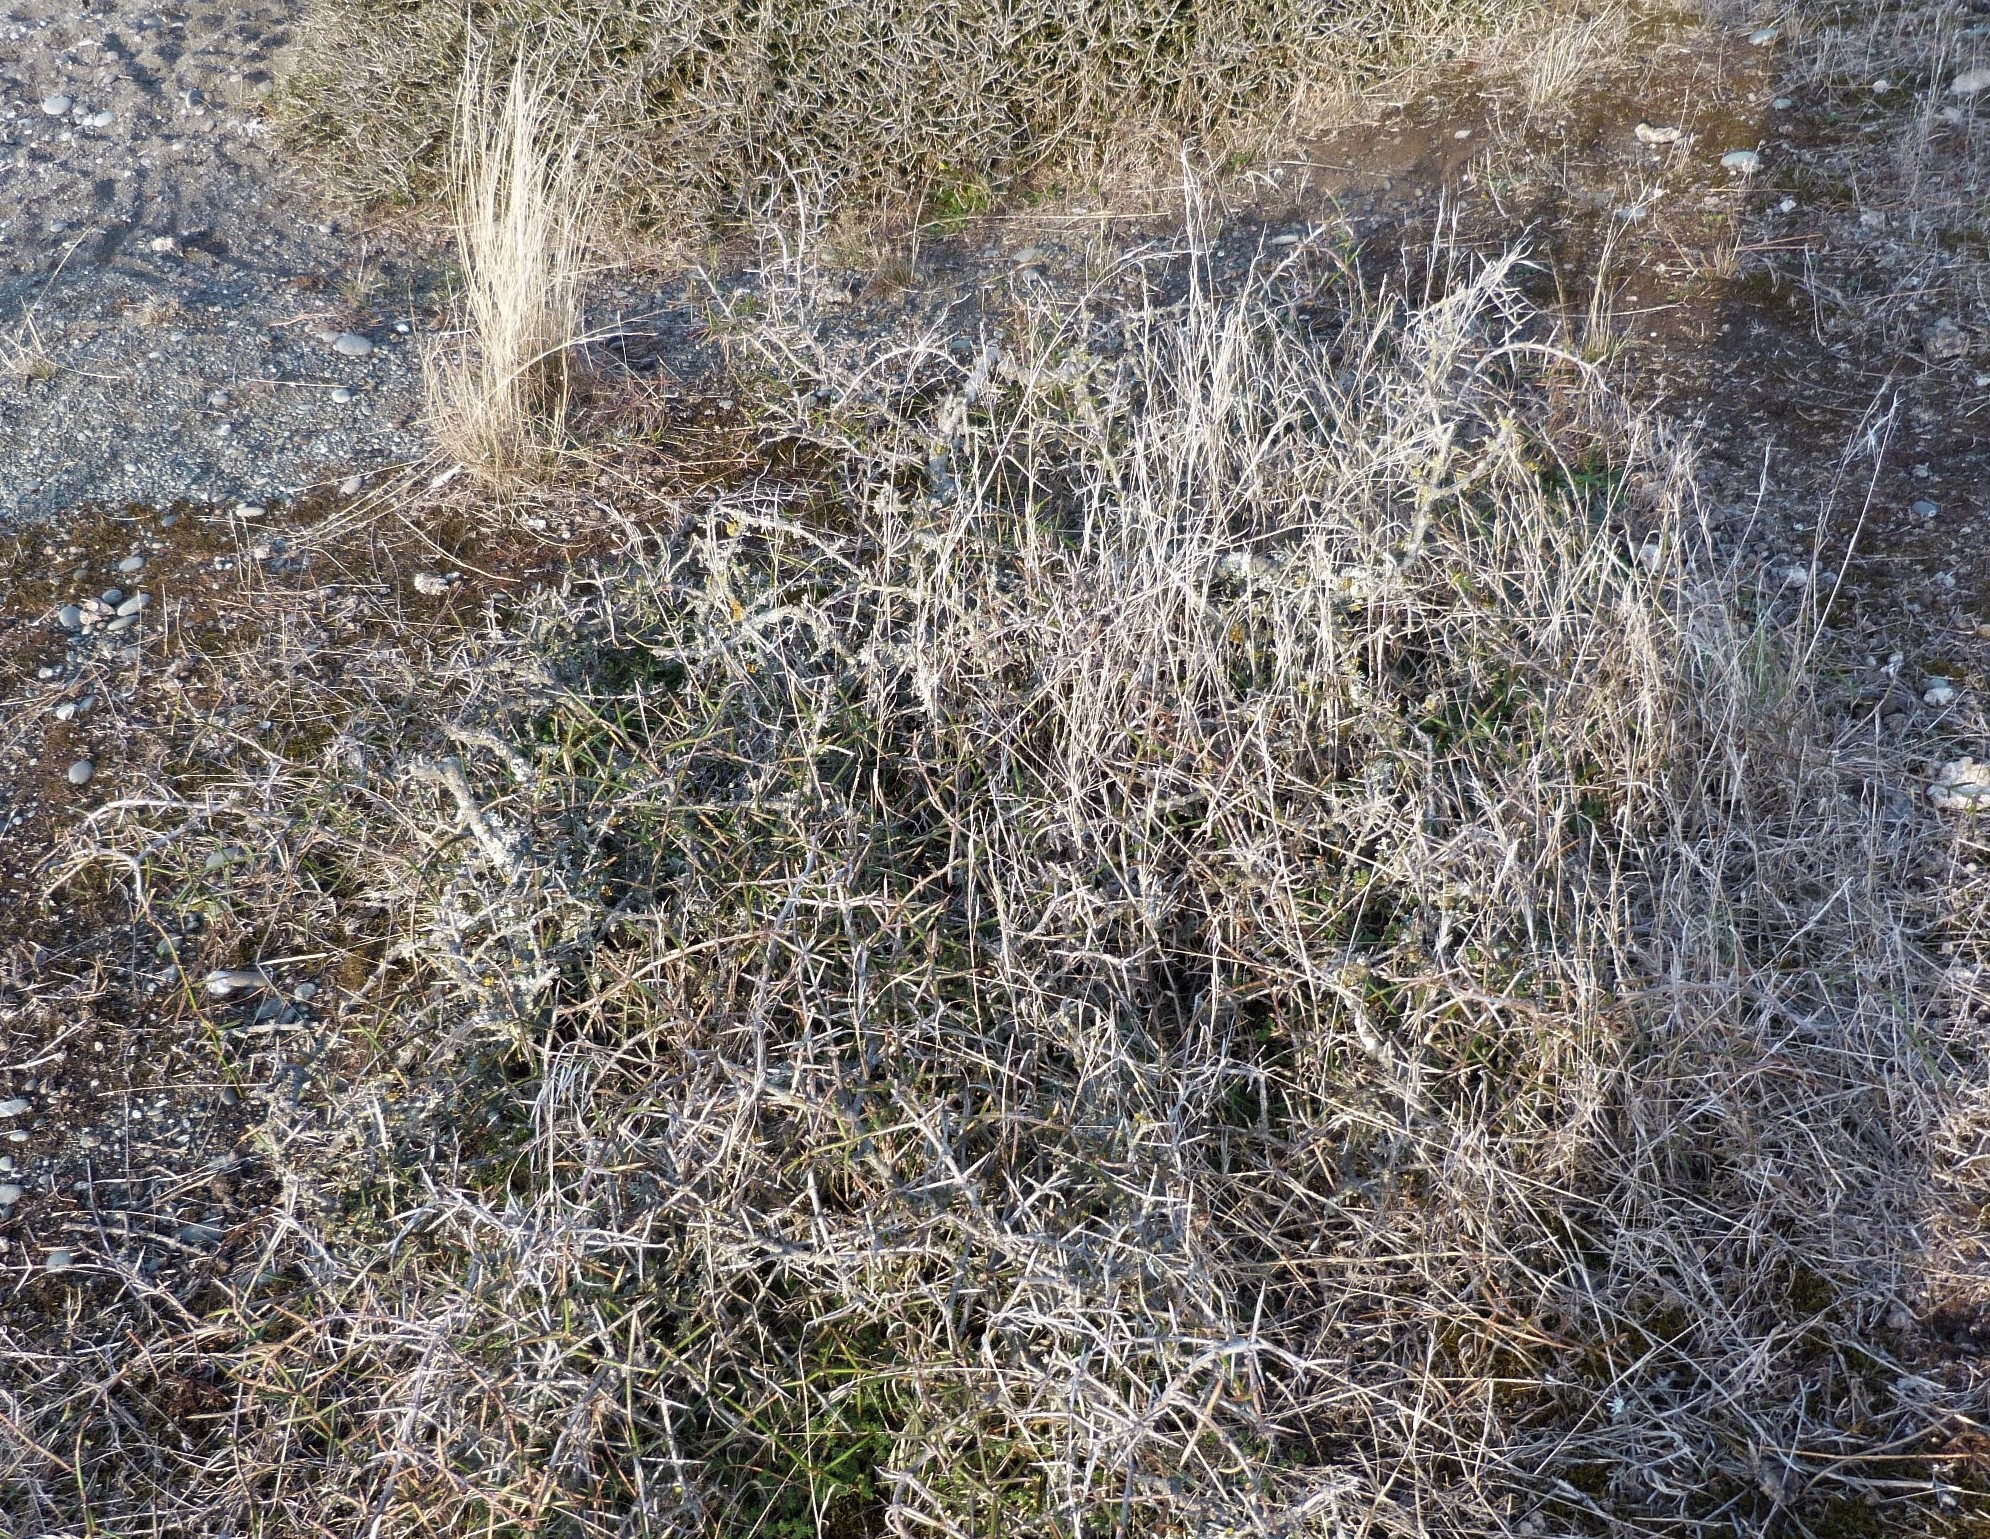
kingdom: Plantae
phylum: Tracheophyta
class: Magnoliopsida
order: Rosales
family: Rhamnaceae
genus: Discaria
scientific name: Discaria toumatou
